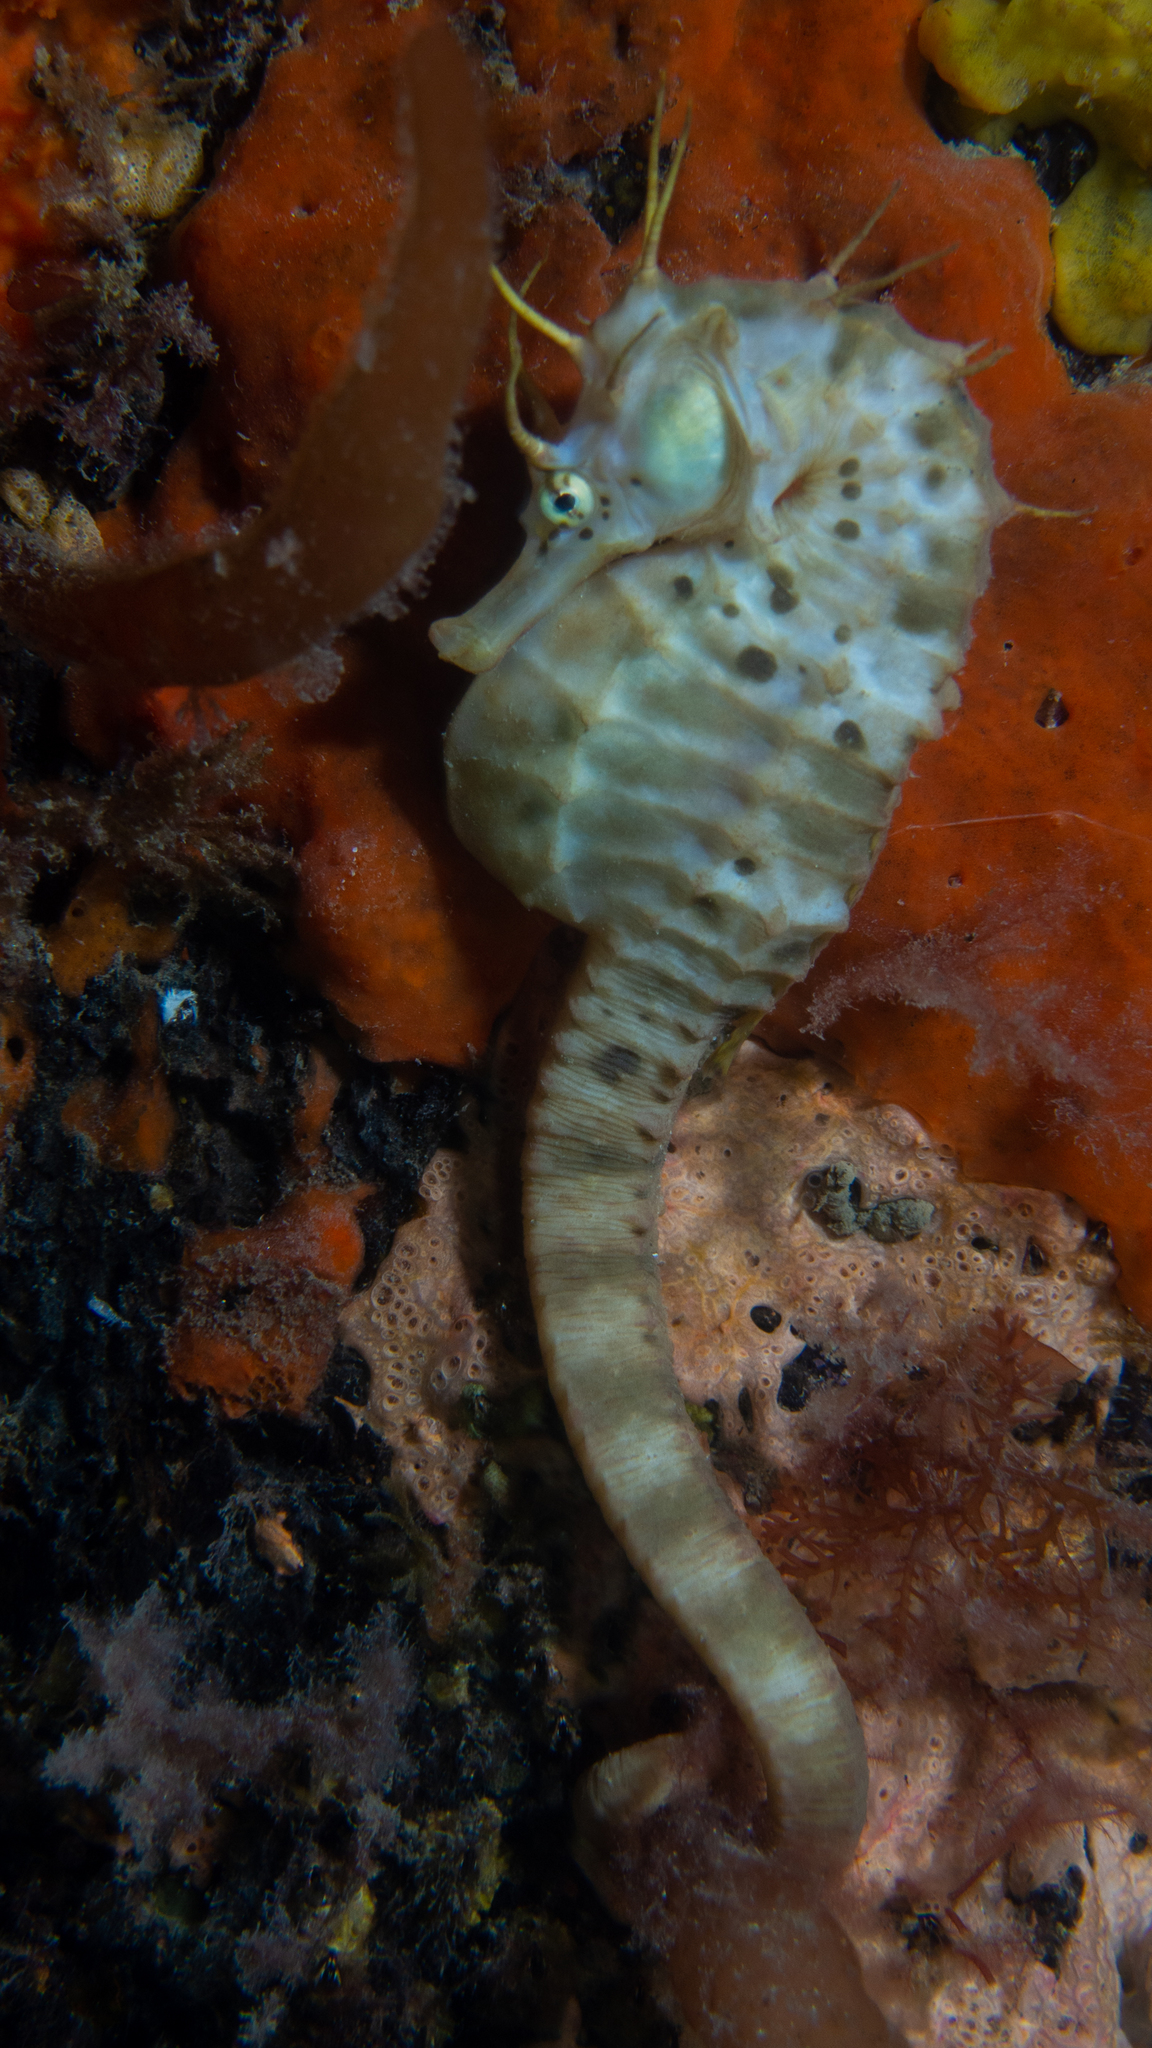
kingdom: Animalia
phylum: Chordata
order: Syngnathiformes
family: Syngnathidae
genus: Hippocampus
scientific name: Hippocampus abdominalis
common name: Big-belly seahorse
